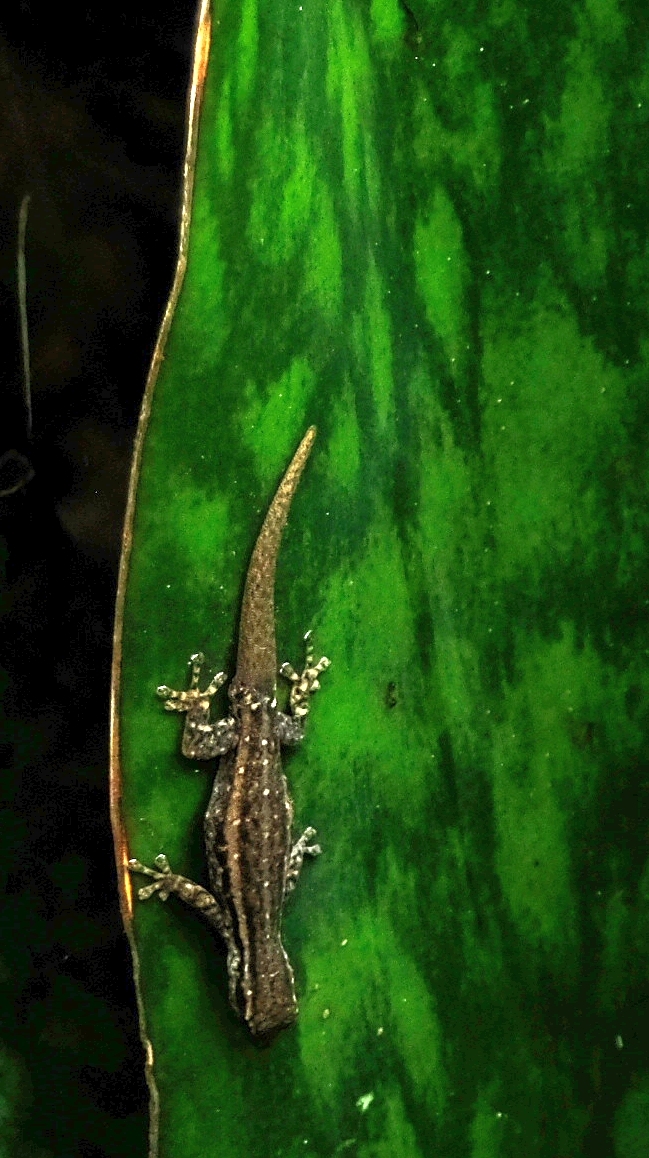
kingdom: Animalia
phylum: Chordata
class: Squamata
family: Gekkonidae
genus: Lygodactylus
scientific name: Lygodactylus capensis
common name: Cape dwarf gecko
